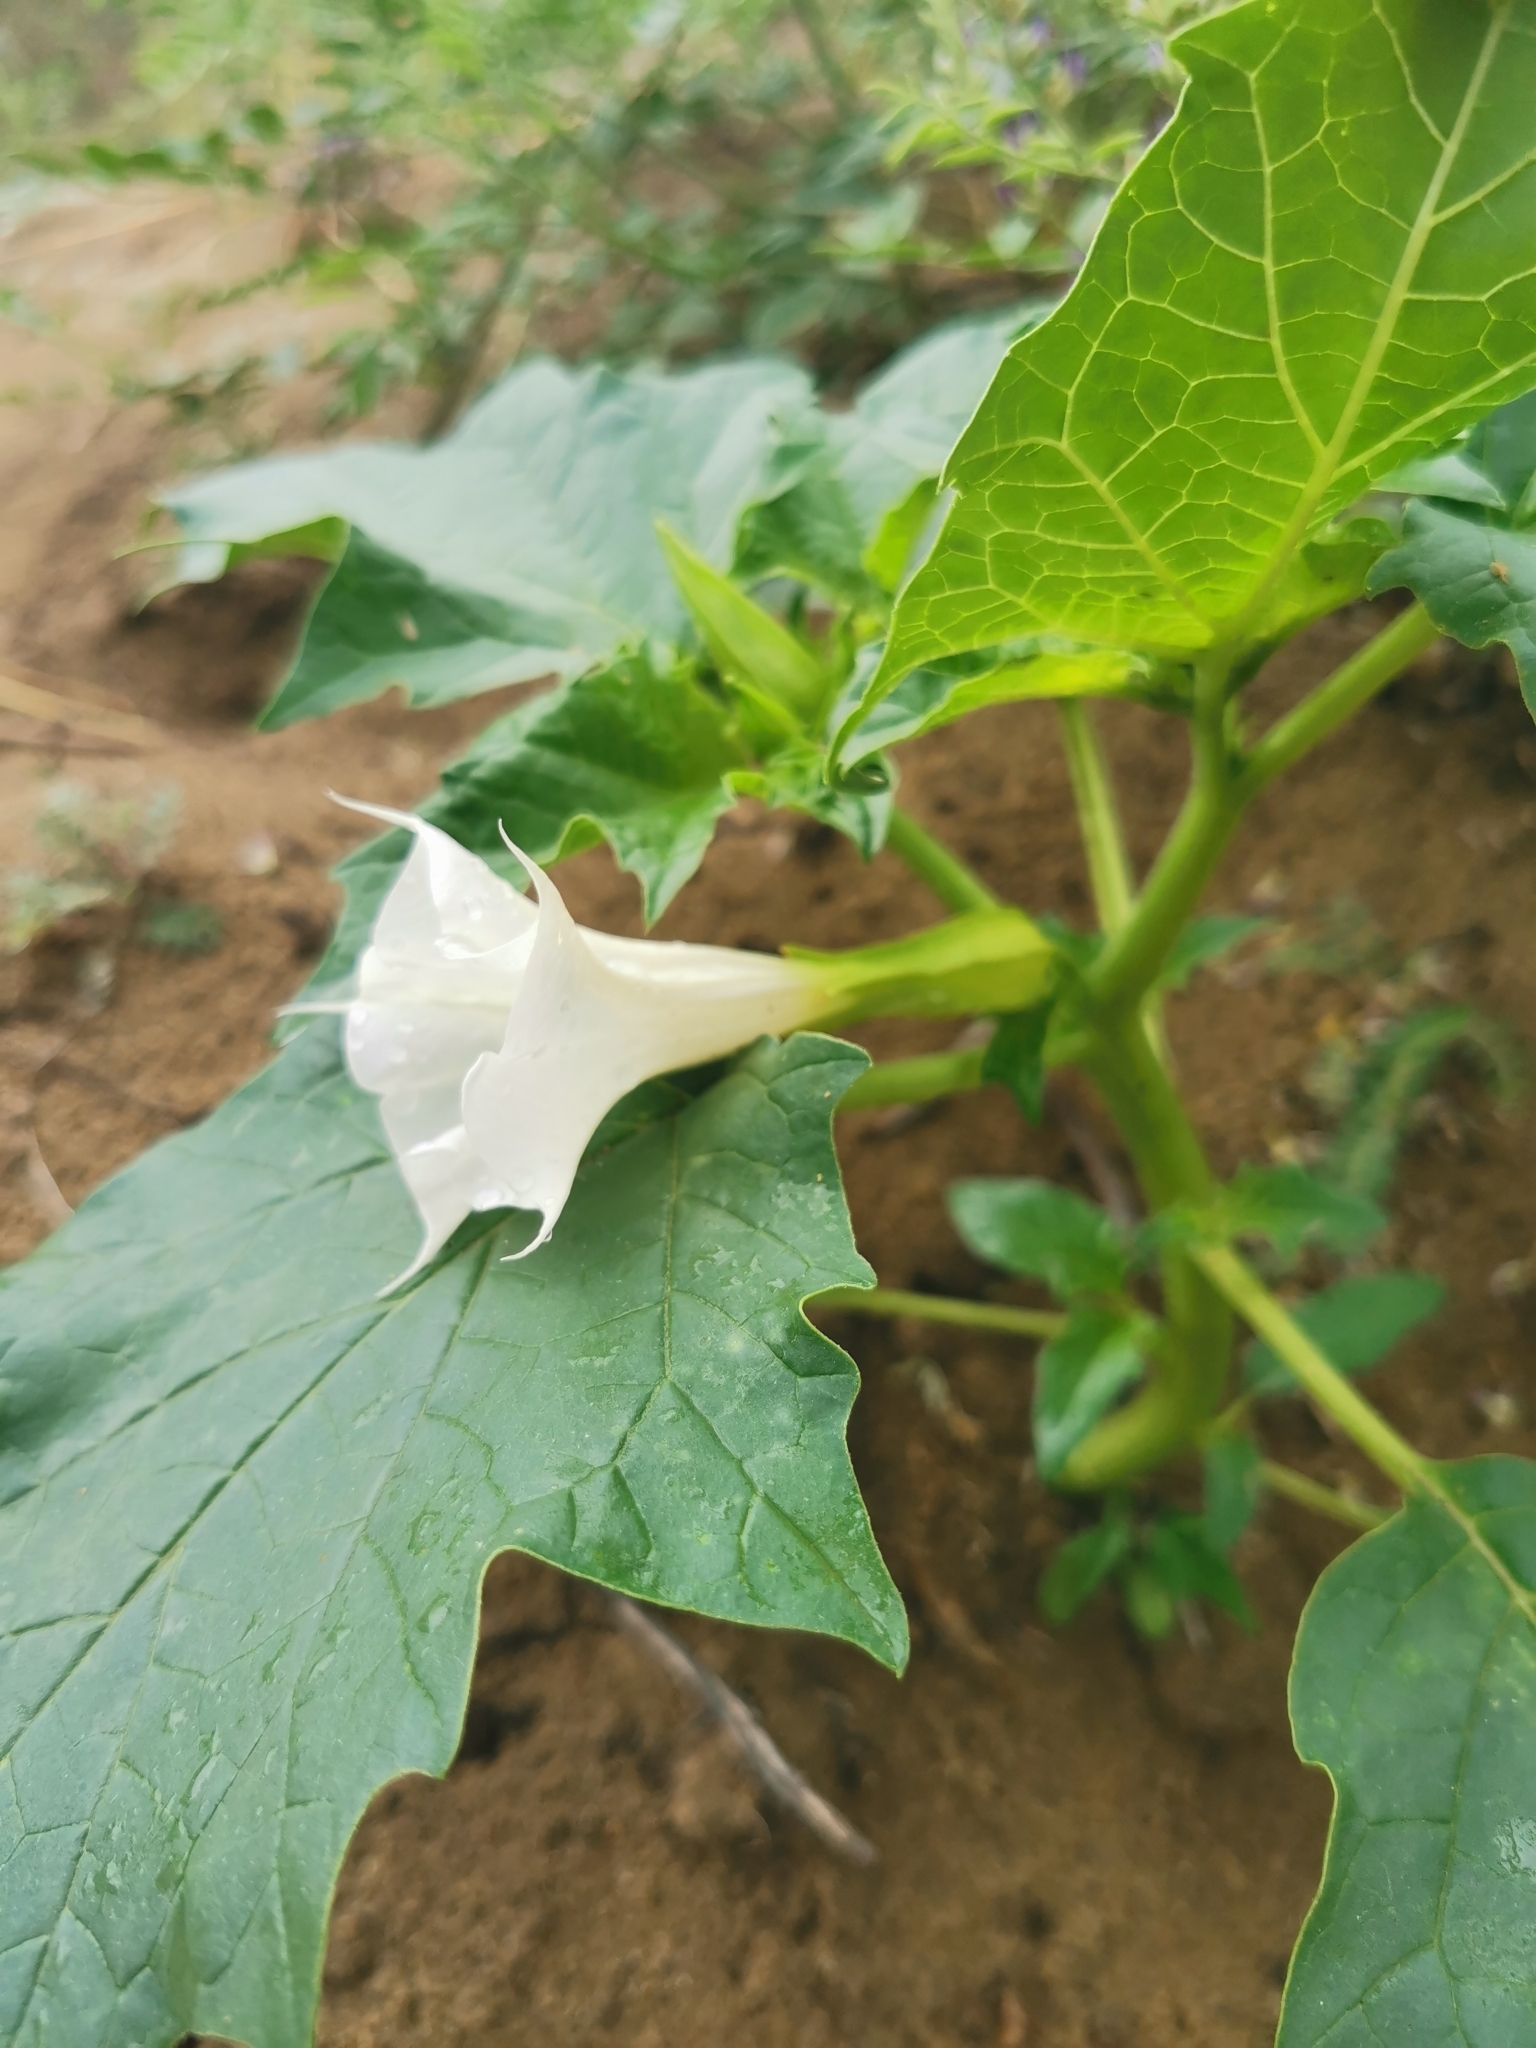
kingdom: Plantae
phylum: Tracheophyta
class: Magnoliopsida
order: Solanales
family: Solanaceae
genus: Datura
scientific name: Datura stramonium
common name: Thorn-apple
